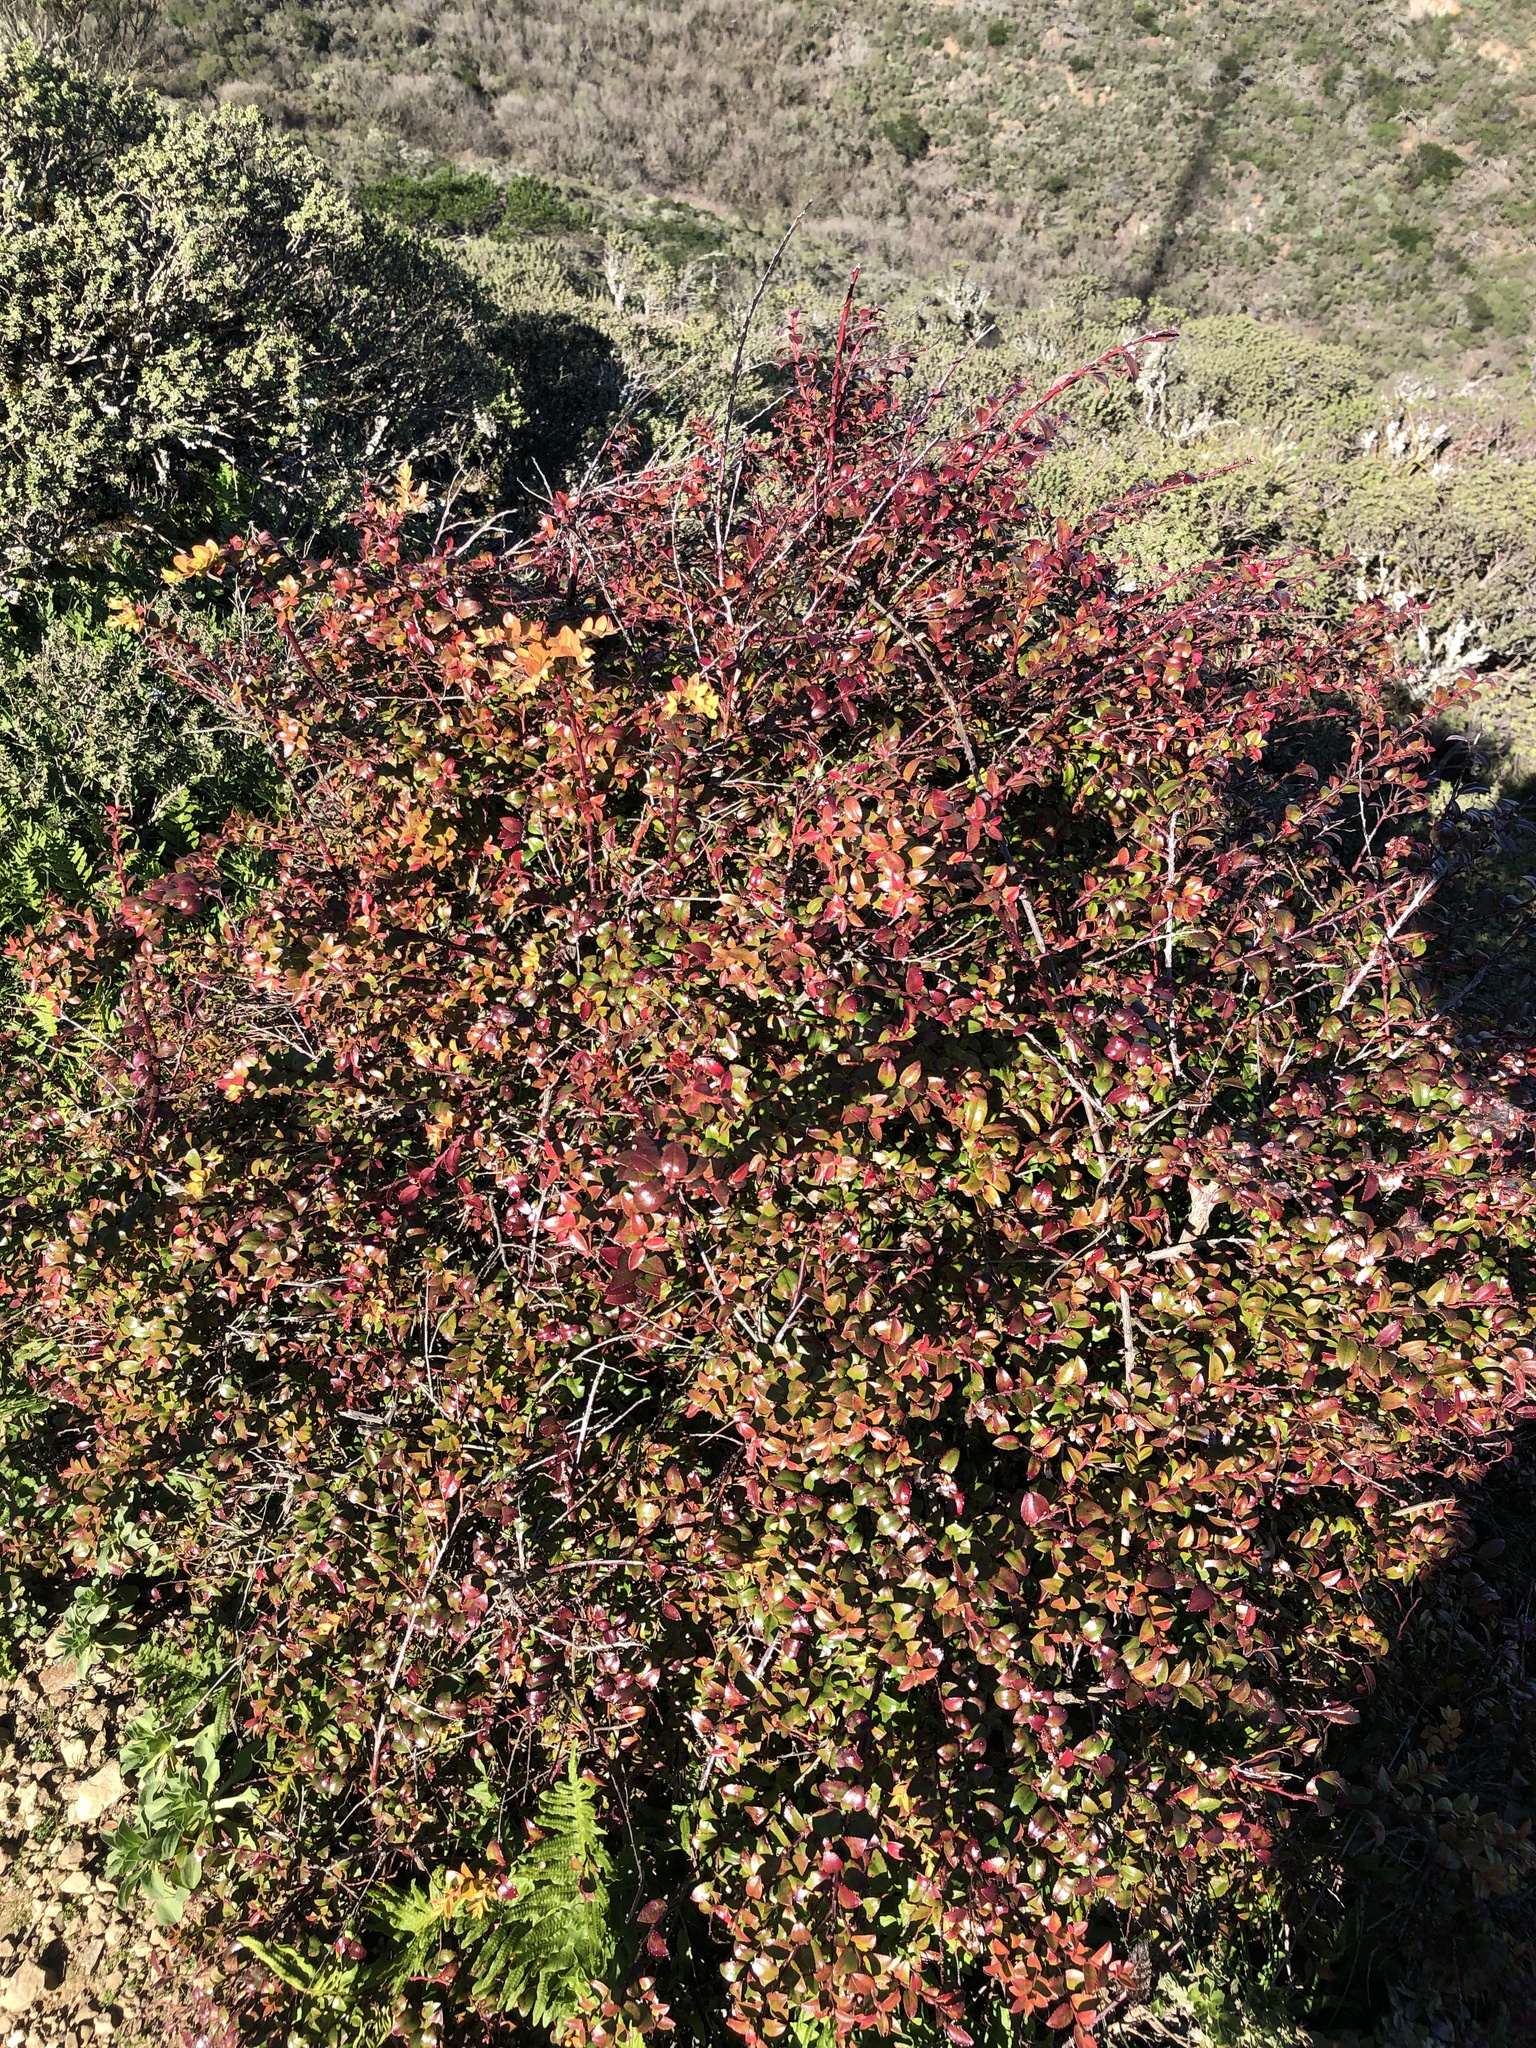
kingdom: Plantae
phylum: Tracheophyta
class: Magnoliopsida
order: Ericales
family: Ericaceae
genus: Vaccinium
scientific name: Vaccinium ovatum
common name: California-huckleberry
